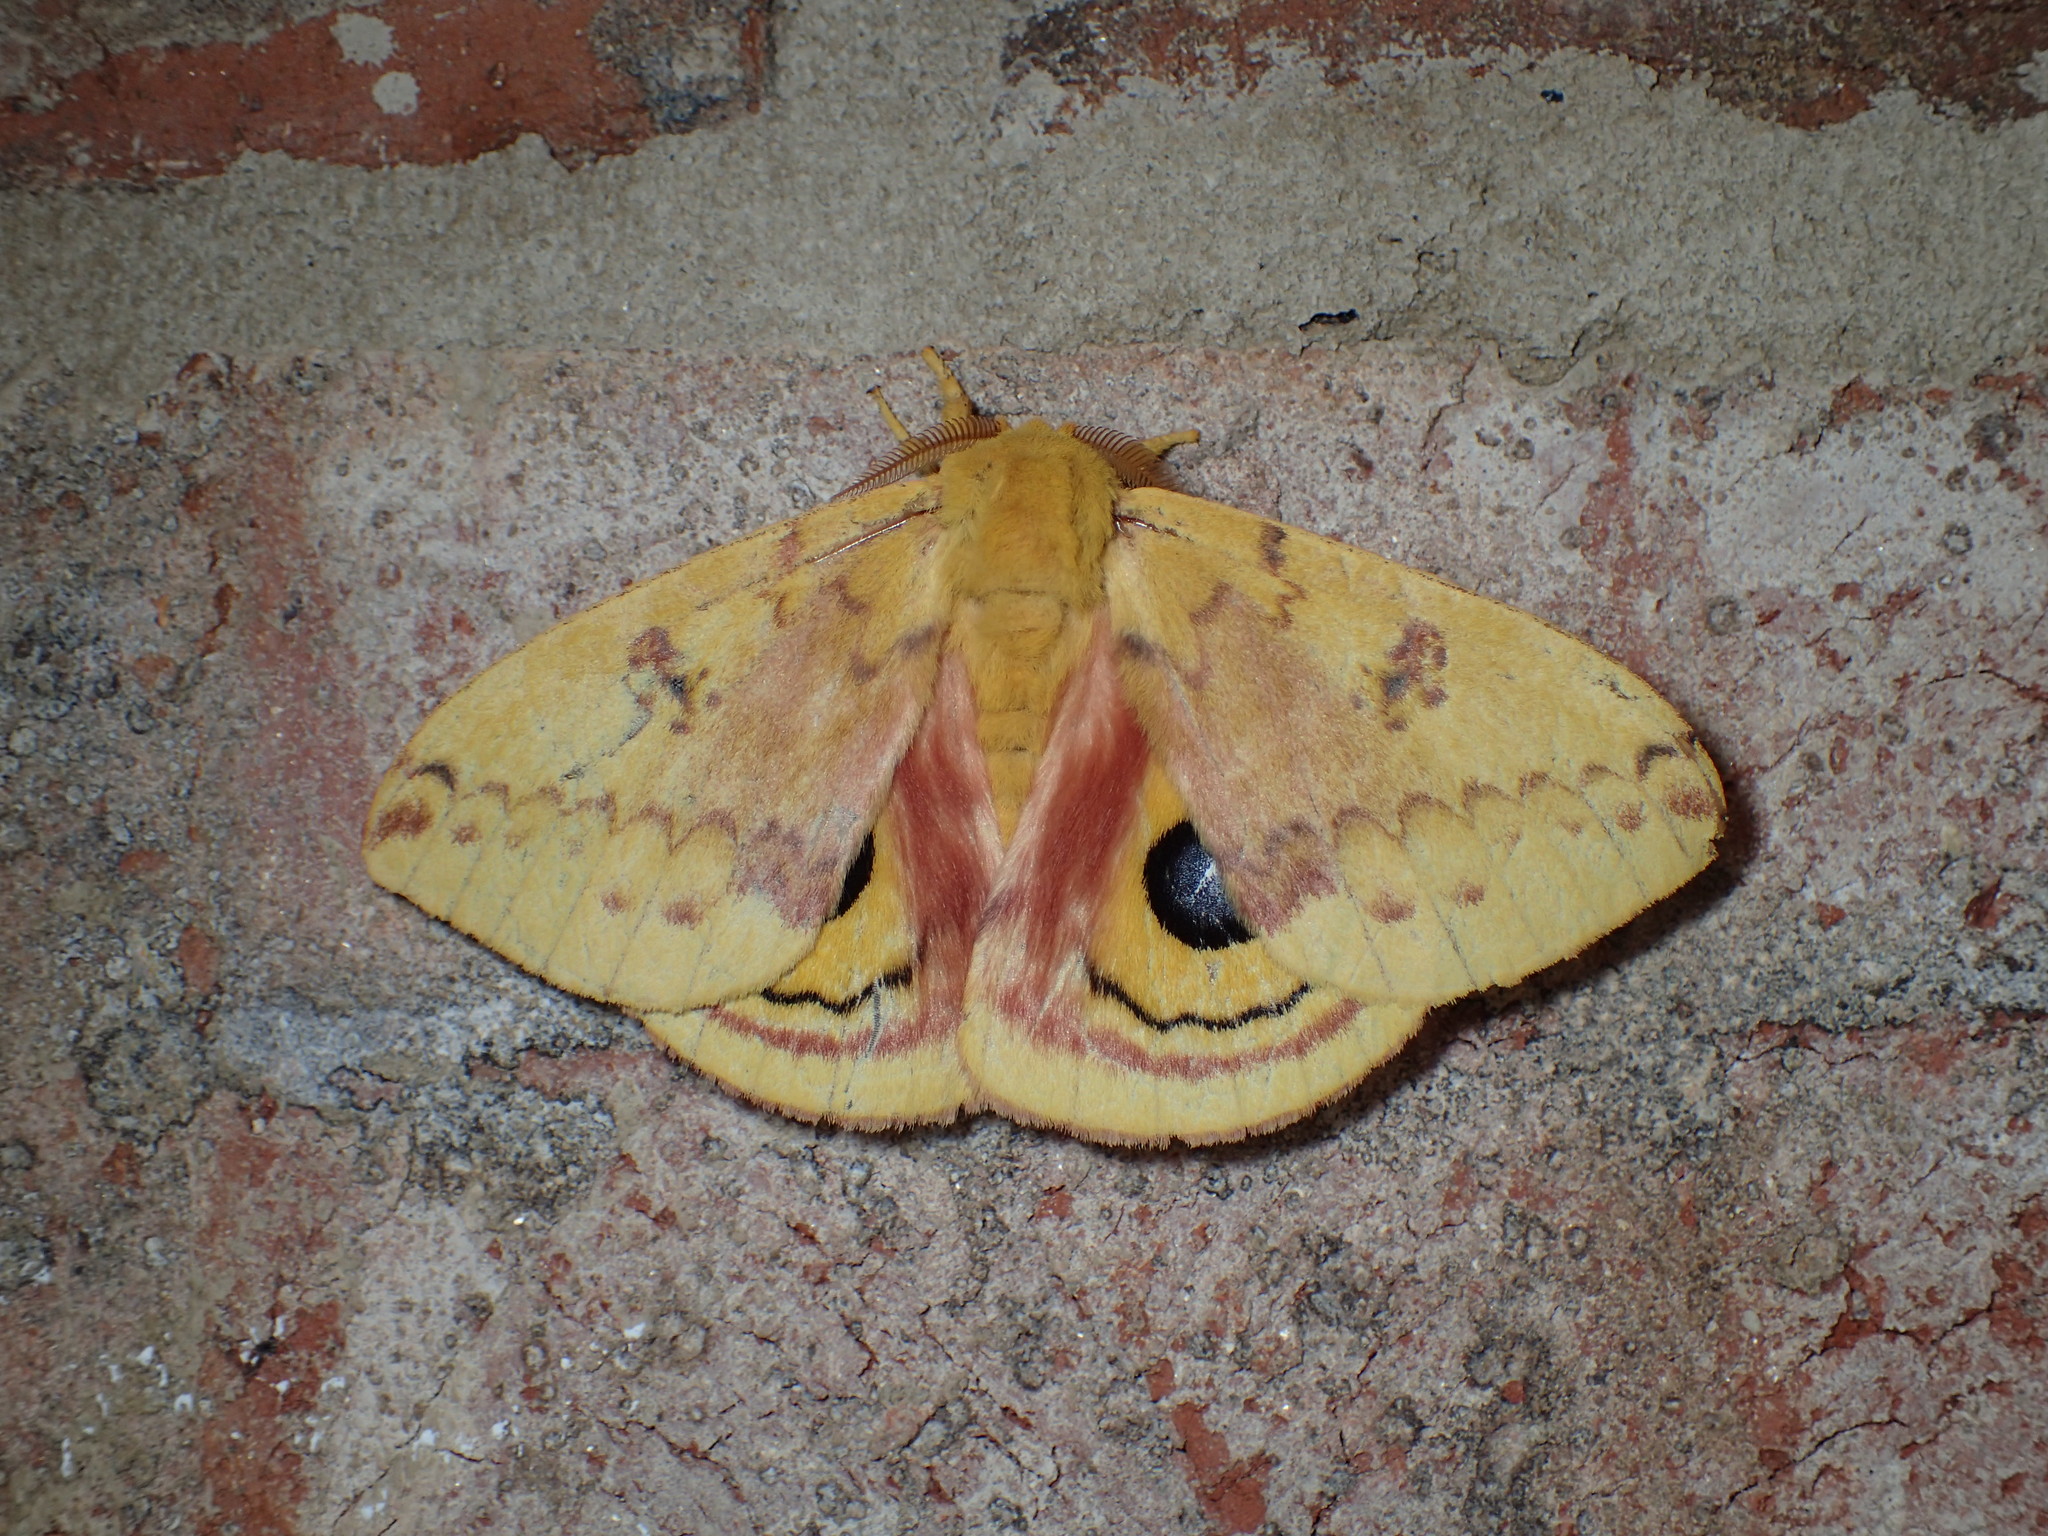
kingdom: Animalia
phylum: Arthropoda
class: Insecta
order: Lepidoptera
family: Saturniidae
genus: Automeris
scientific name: Automeris io
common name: Io moth
